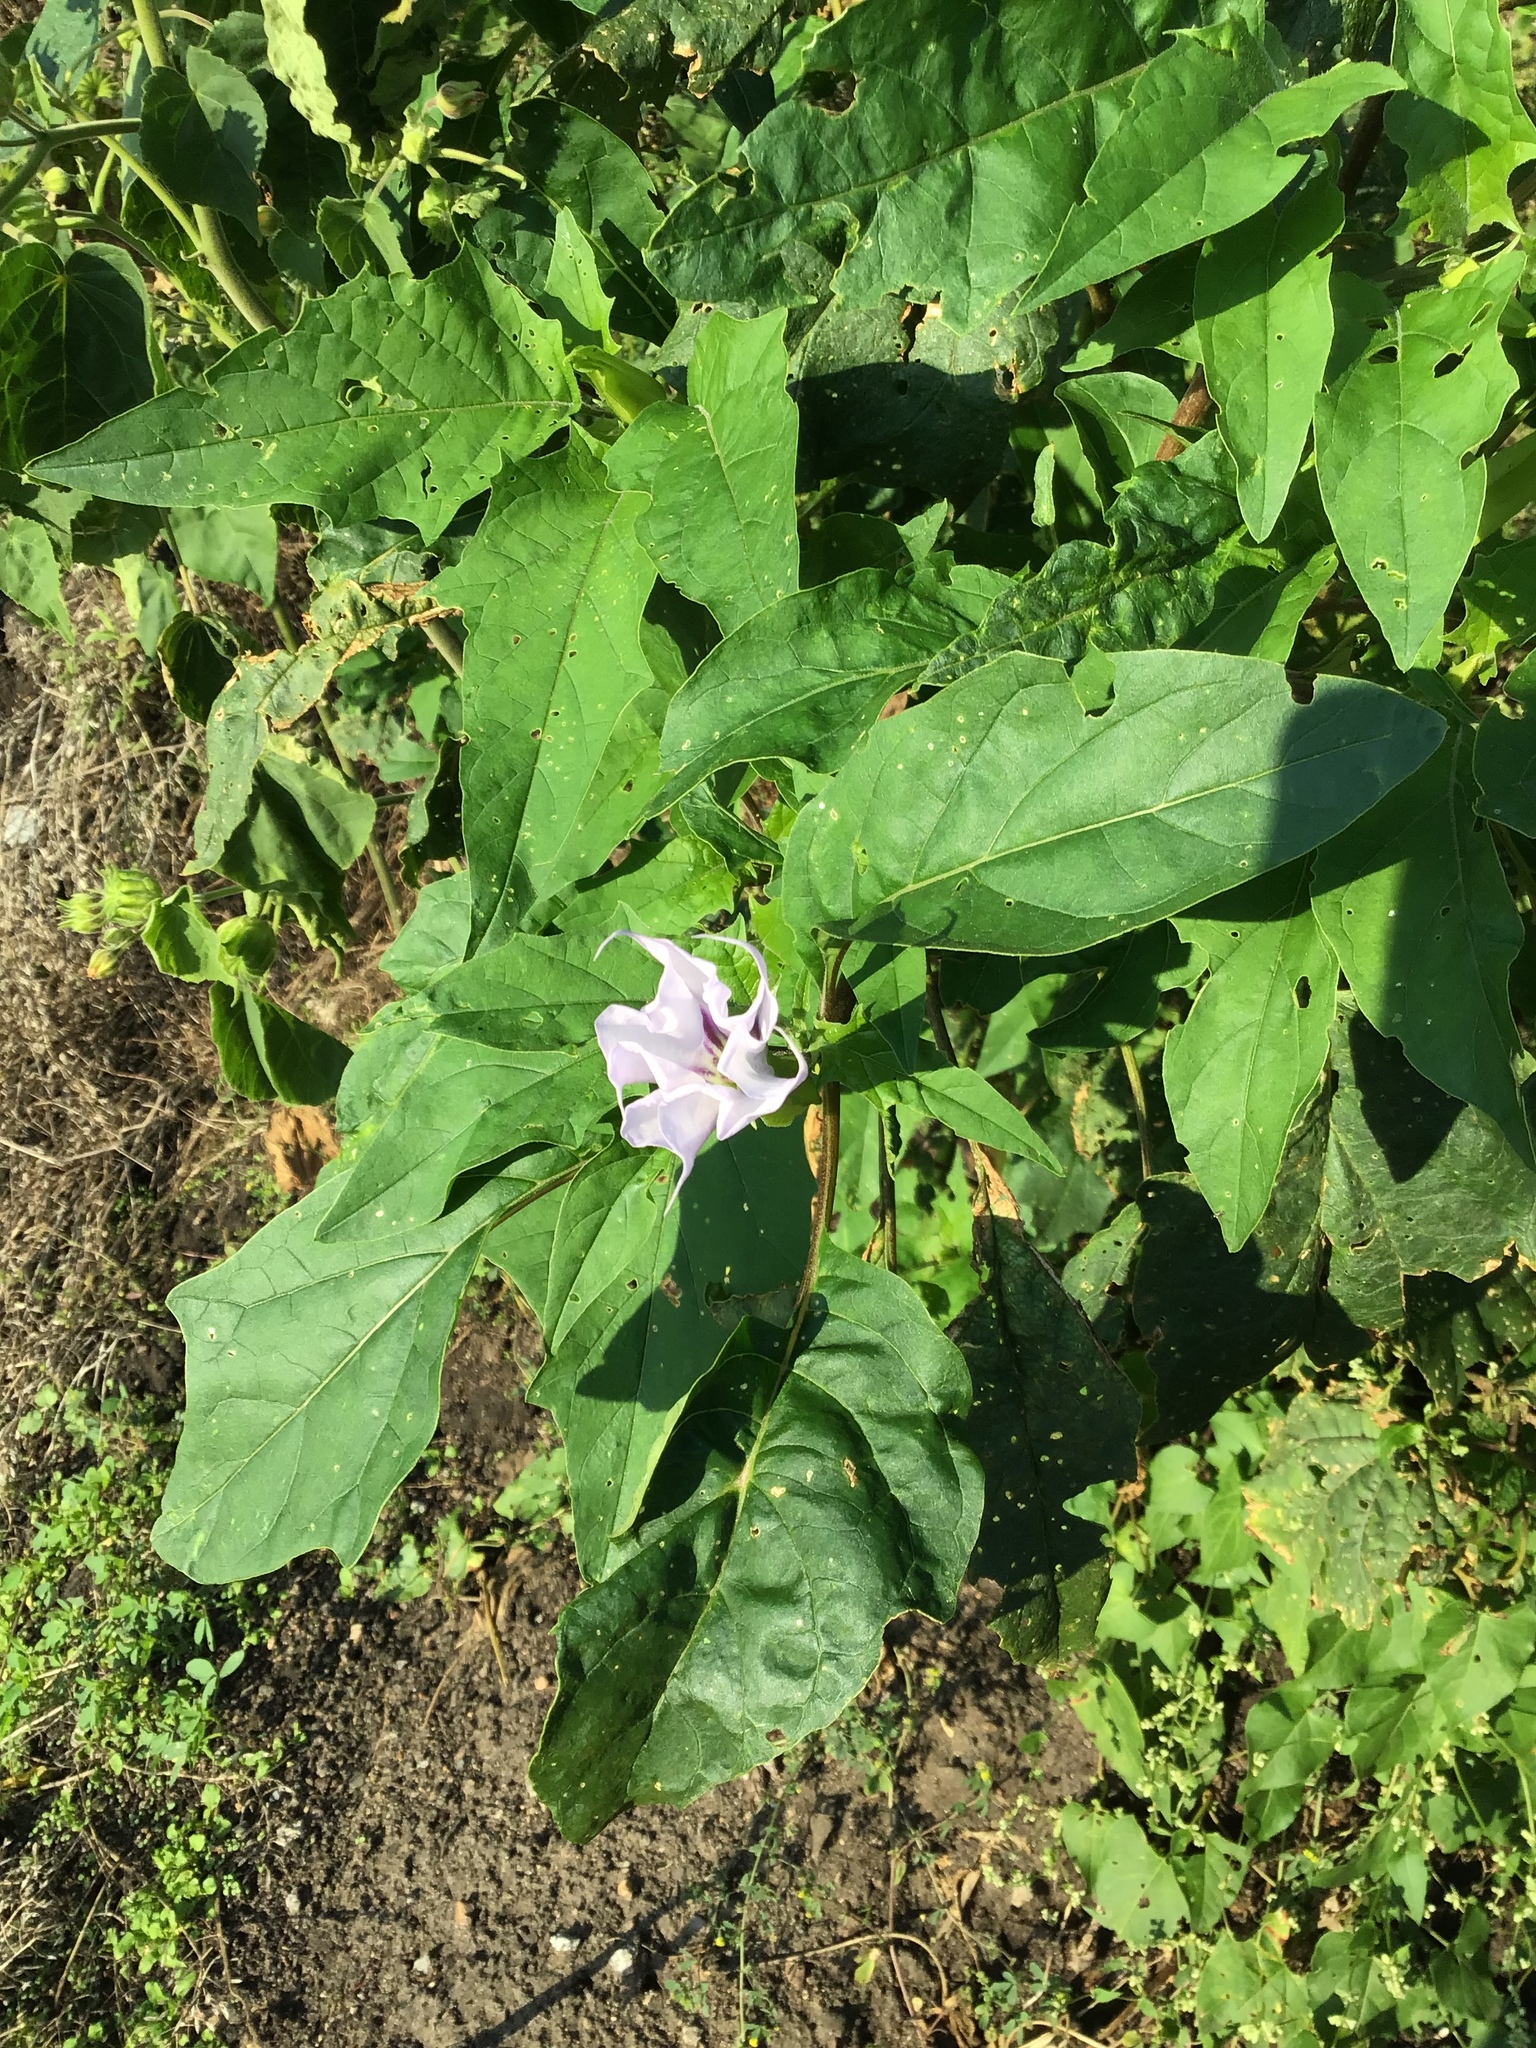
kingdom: Plantae
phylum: Tracheophyta
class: Magnoliopsida
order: Solanales
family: Solanaceae
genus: Datura
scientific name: Datura stramonium
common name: Thorn-apple
